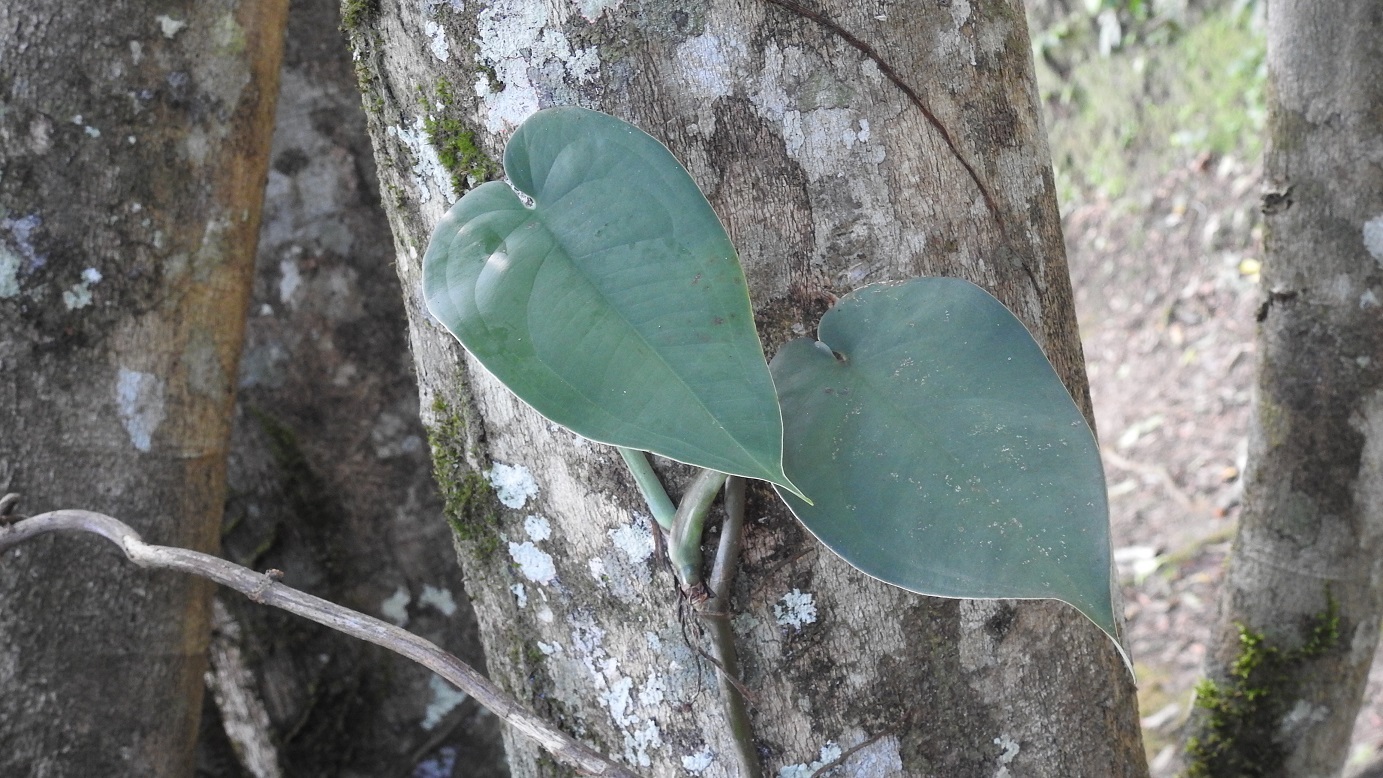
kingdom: Plantae
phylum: Tracheophyta
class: Liliopsida
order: Alismatales
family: Araceae
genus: Syngonium
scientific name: Syngonium chiapense
